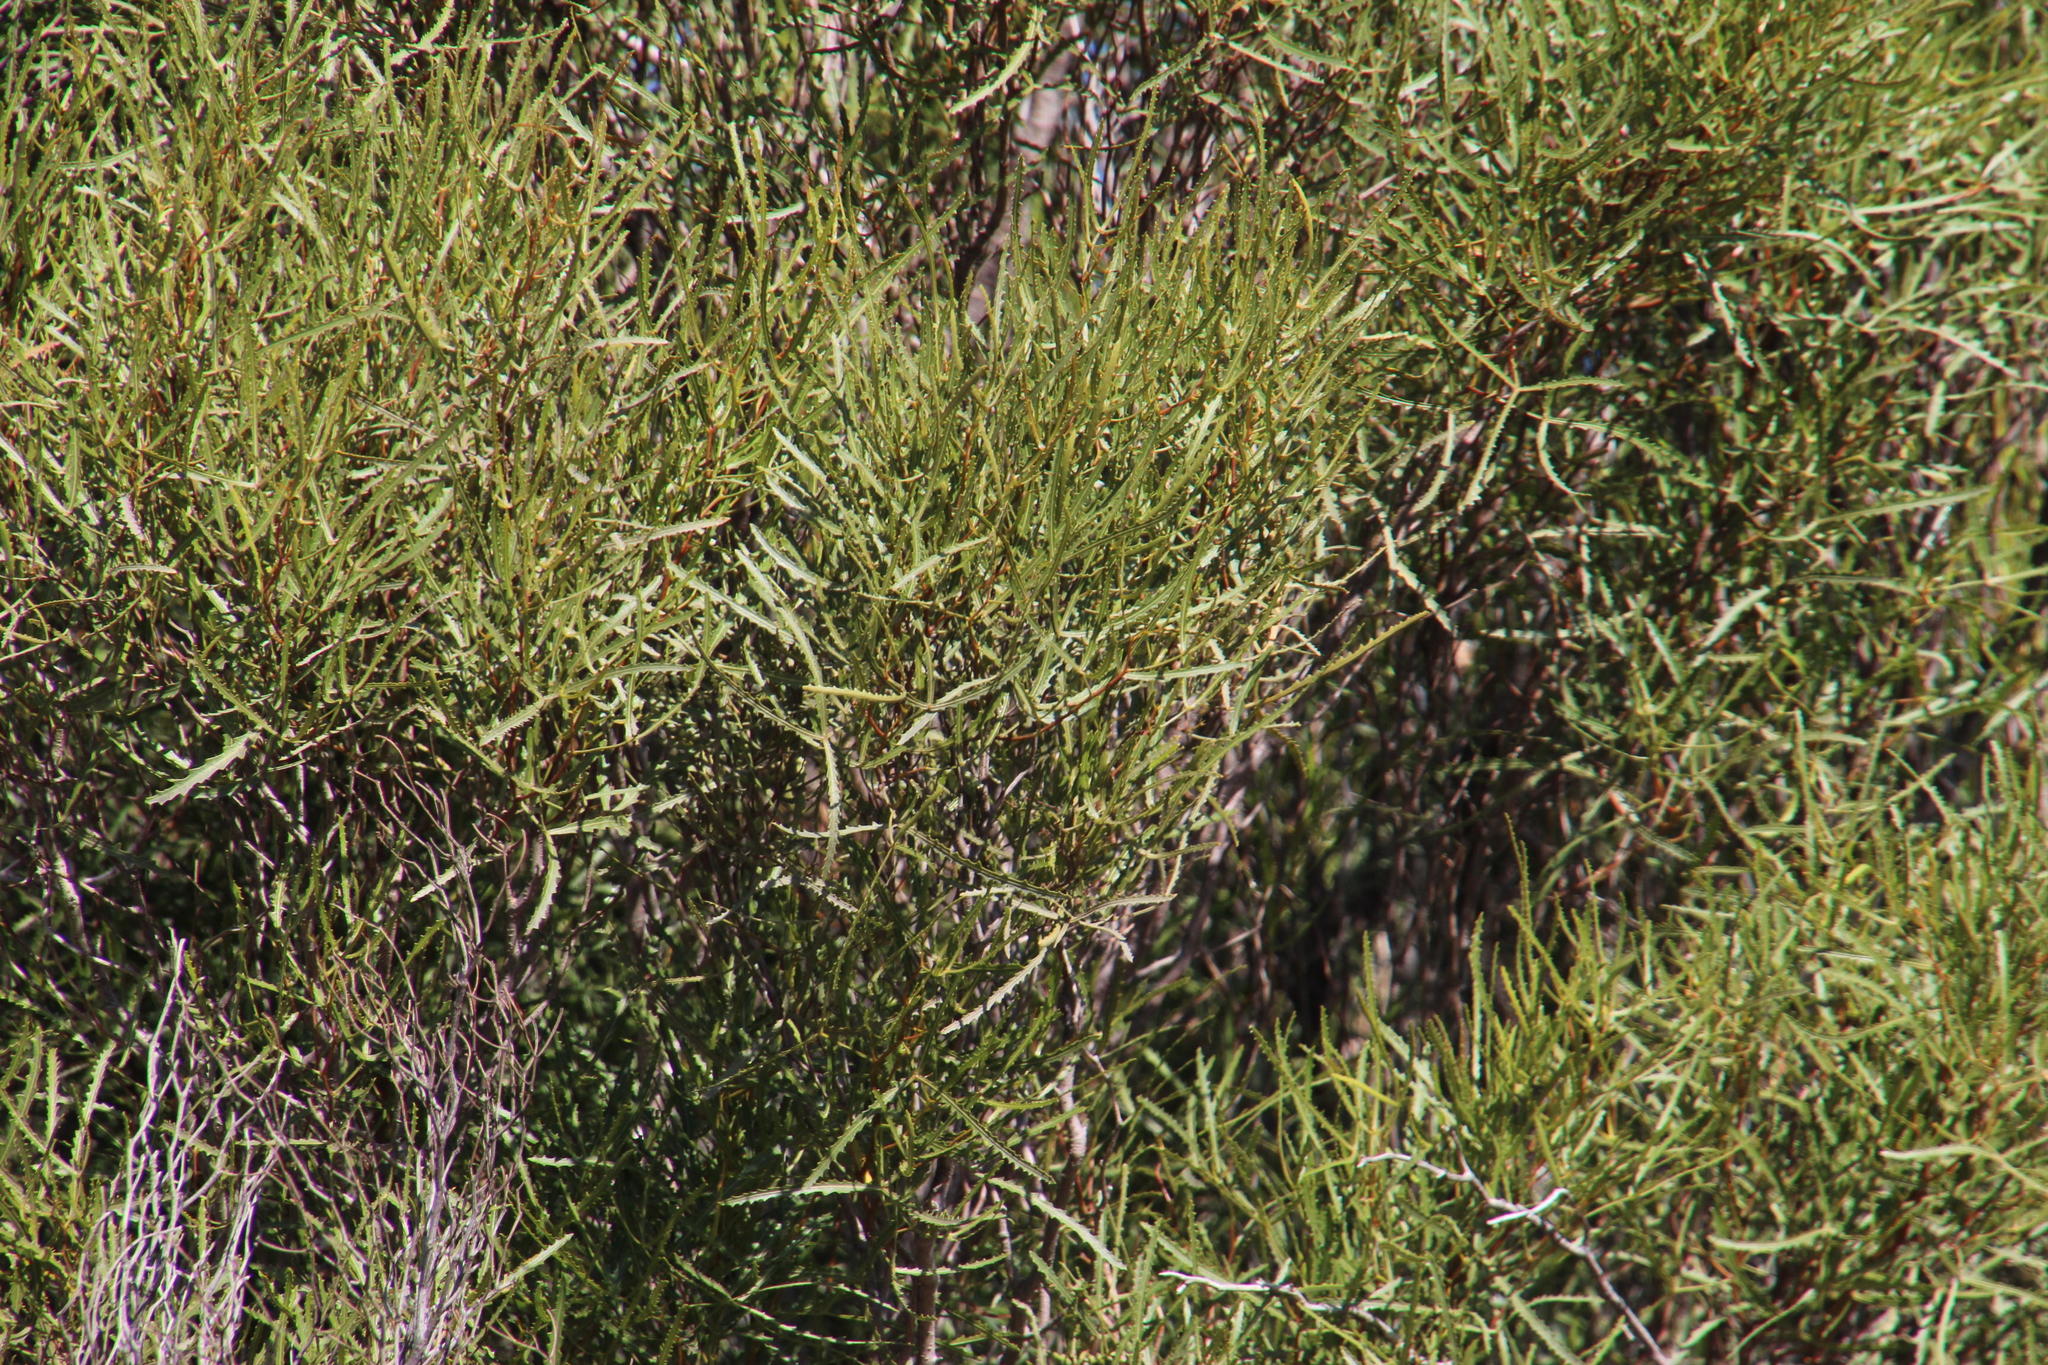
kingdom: Plantae
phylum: Tracheophyta
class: Magnoliopsida
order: Sapindales
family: Anacardiaceae
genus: Searsia
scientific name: Searsia erosa
